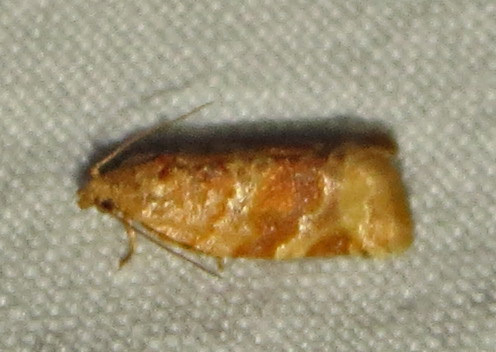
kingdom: Animalia
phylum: Arthropoda
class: Insecta
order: Lepidoptera
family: Tortricidae
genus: Argyrotaenia
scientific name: Argyrotaenia pinatubana
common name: Pine tube moth
